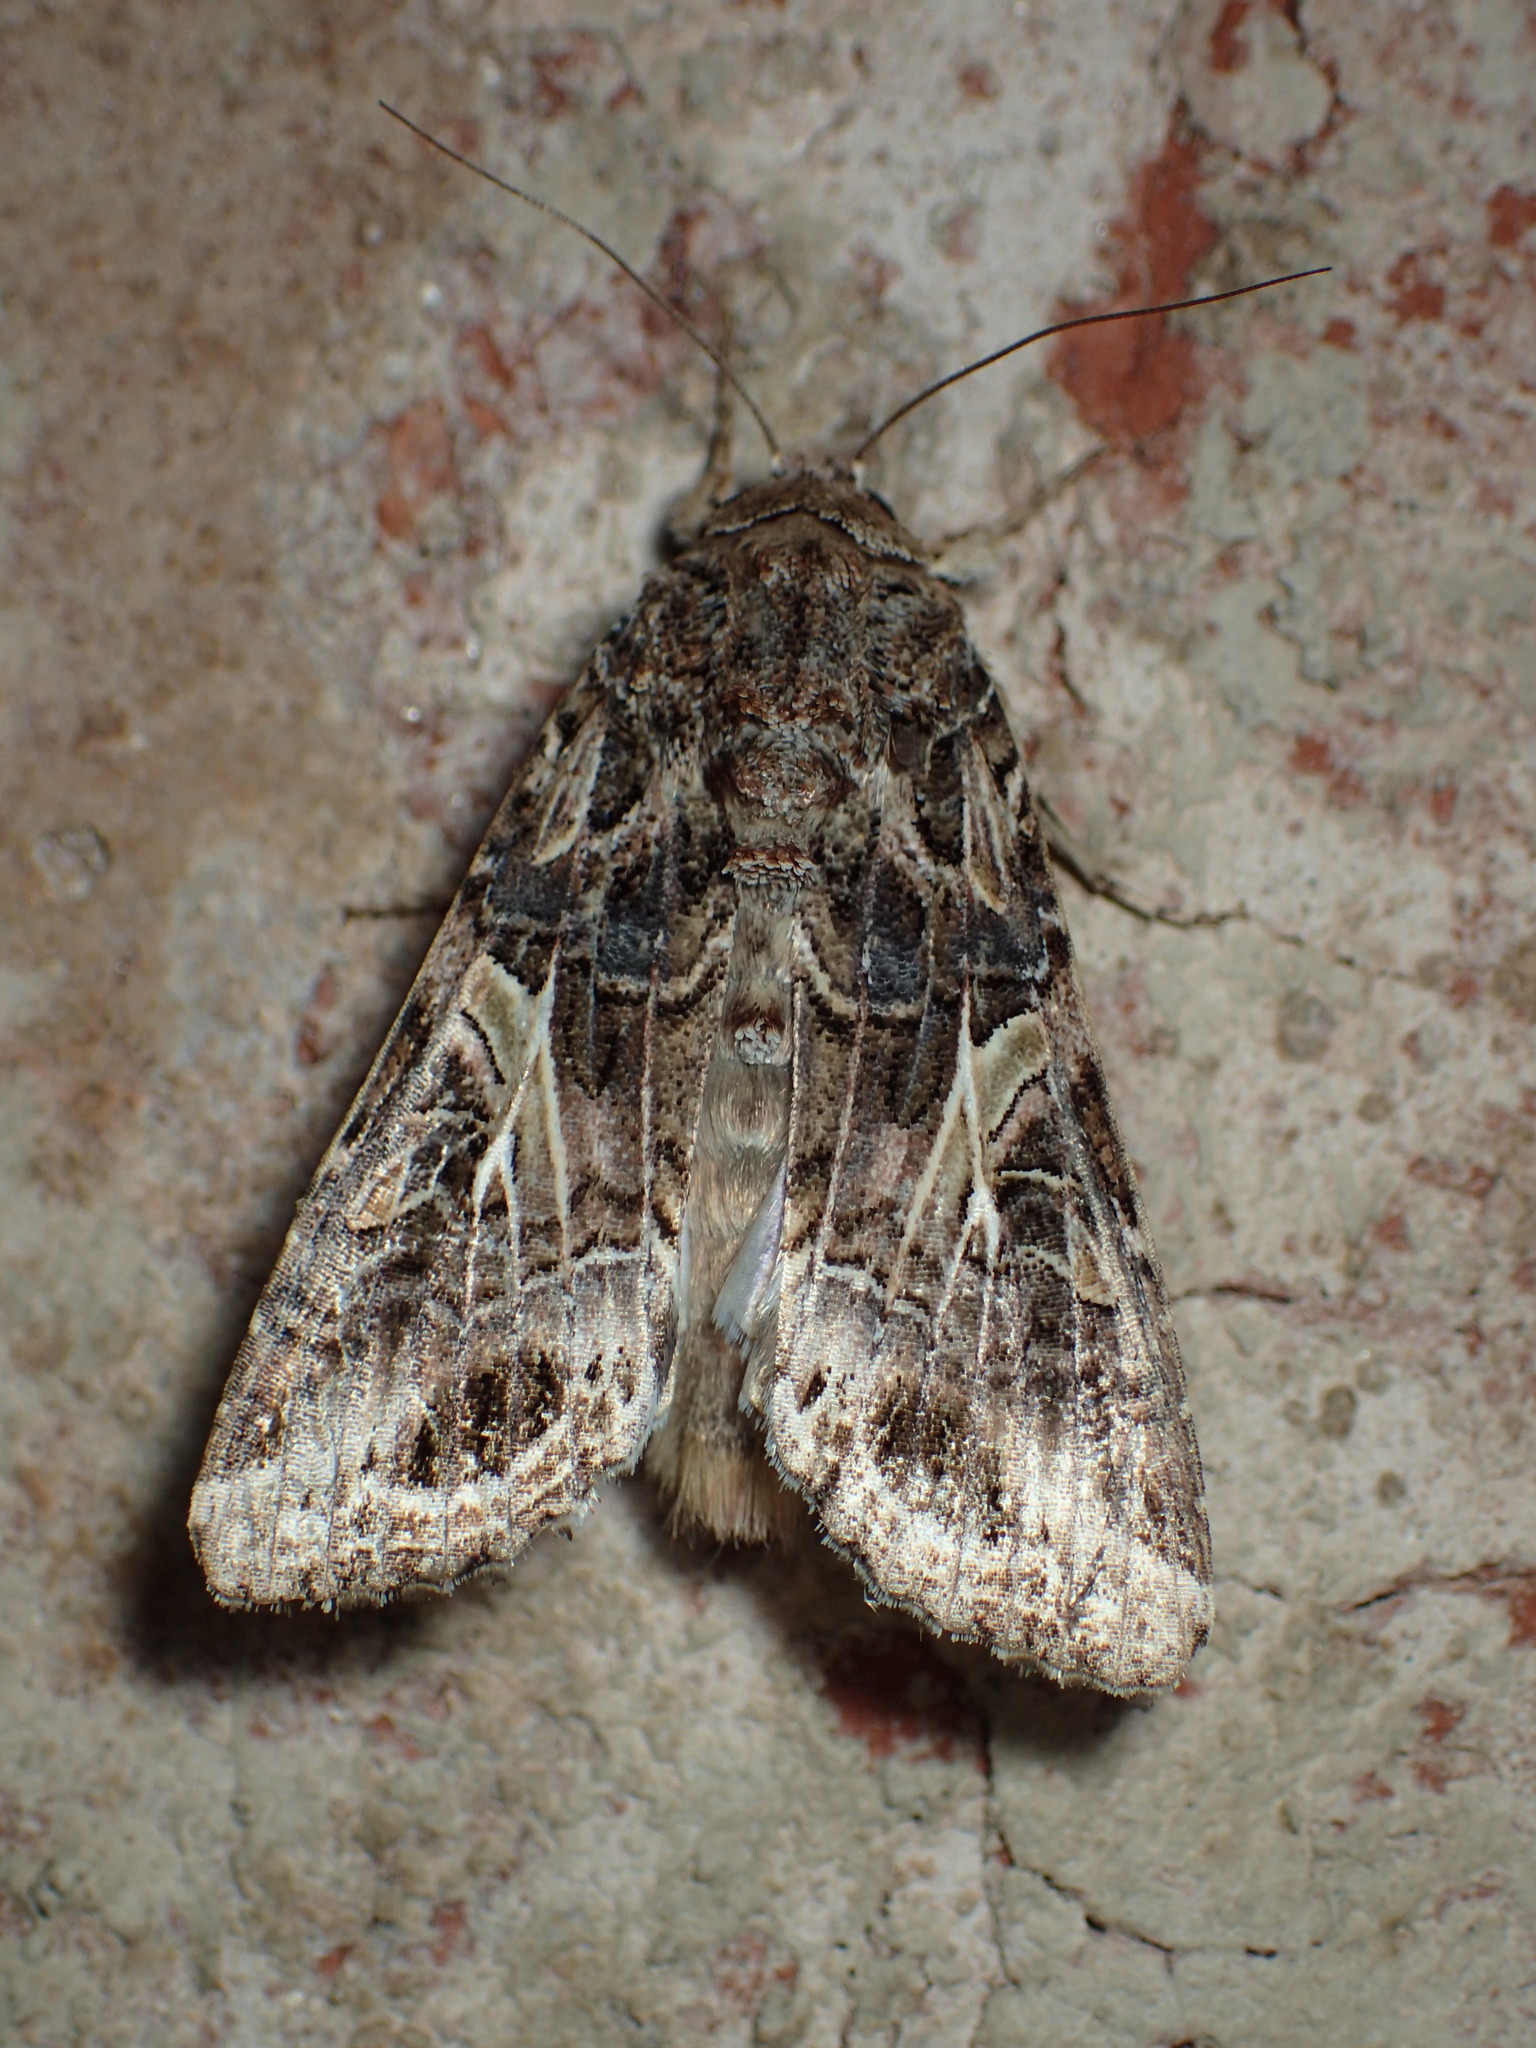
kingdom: Animalia
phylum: Arthropoda
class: Insecta
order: Lepidoptera
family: Noctuidae
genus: Spodoptera
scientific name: Spodoptera ornithogalli
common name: Yellow-striped armyworm
